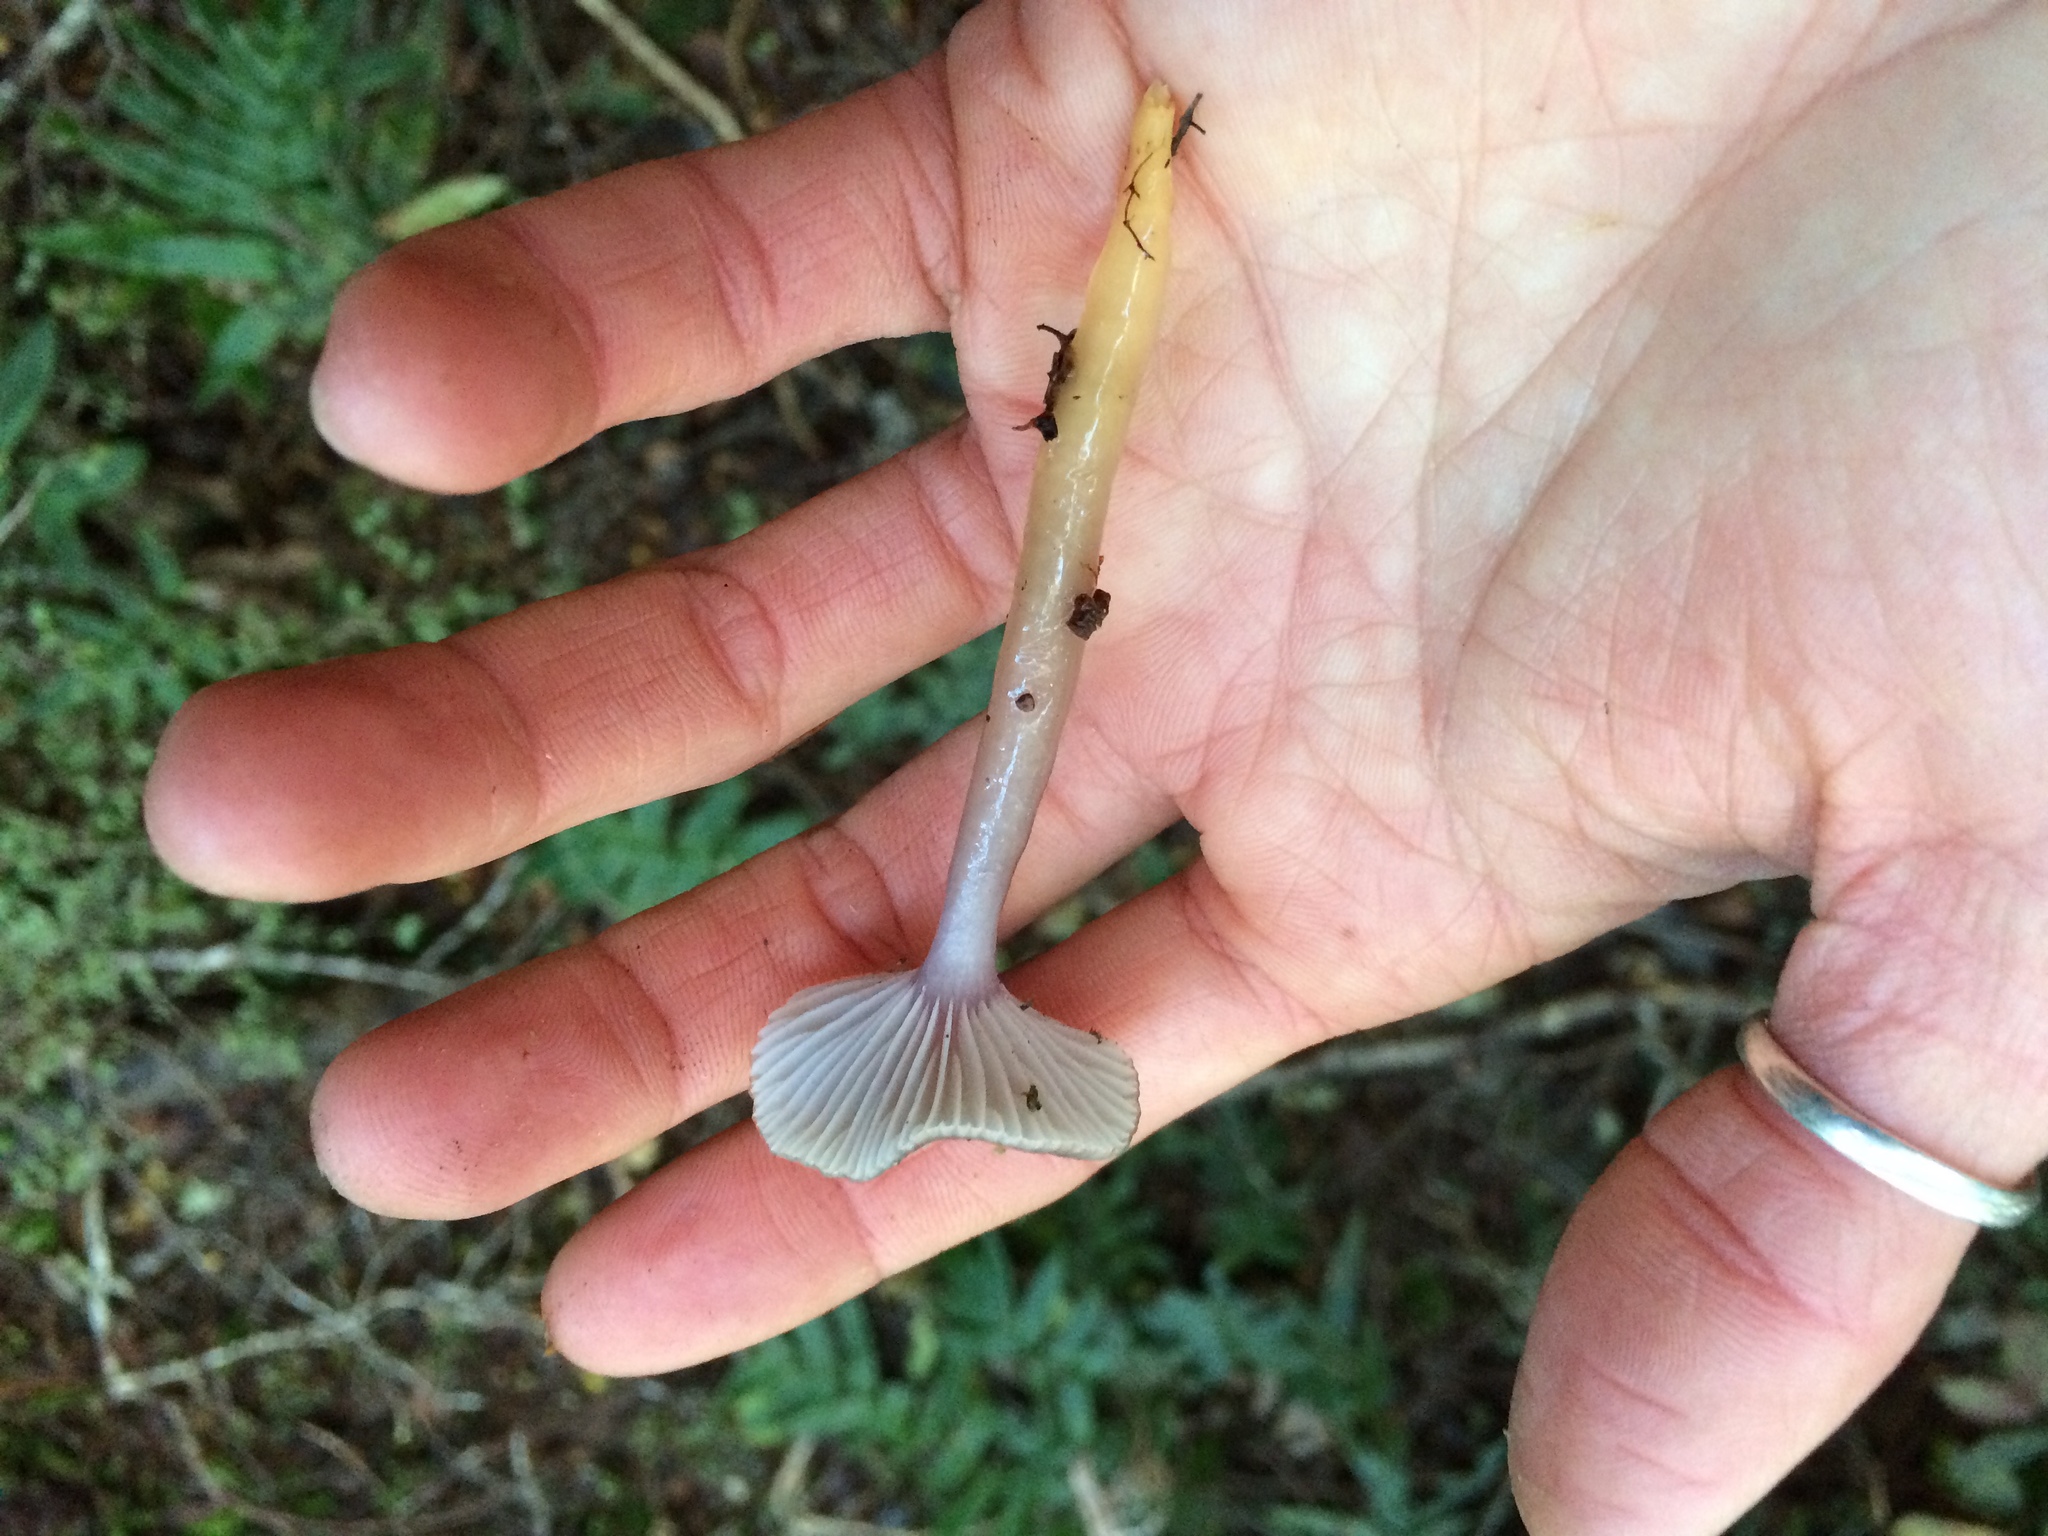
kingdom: Fungi
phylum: Basidiomycota
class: Agaricomycetes
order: Agaricales
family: Hygrophoraceae
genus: Gliophorus
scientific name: Gliophorus lilacipes
